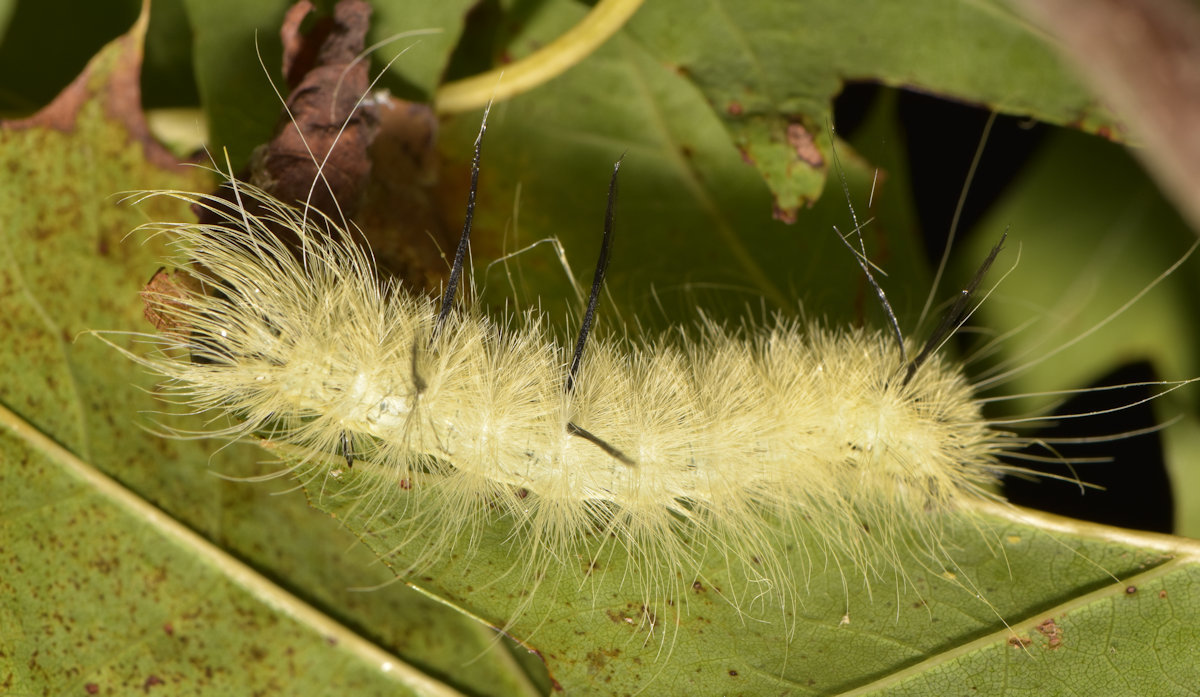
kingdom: Animalia
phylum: Arthropoda
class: Insecta
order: Lepidoptera
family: Noctuidae
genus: Acronicta
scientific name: Acronicta americana
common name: American dagger
